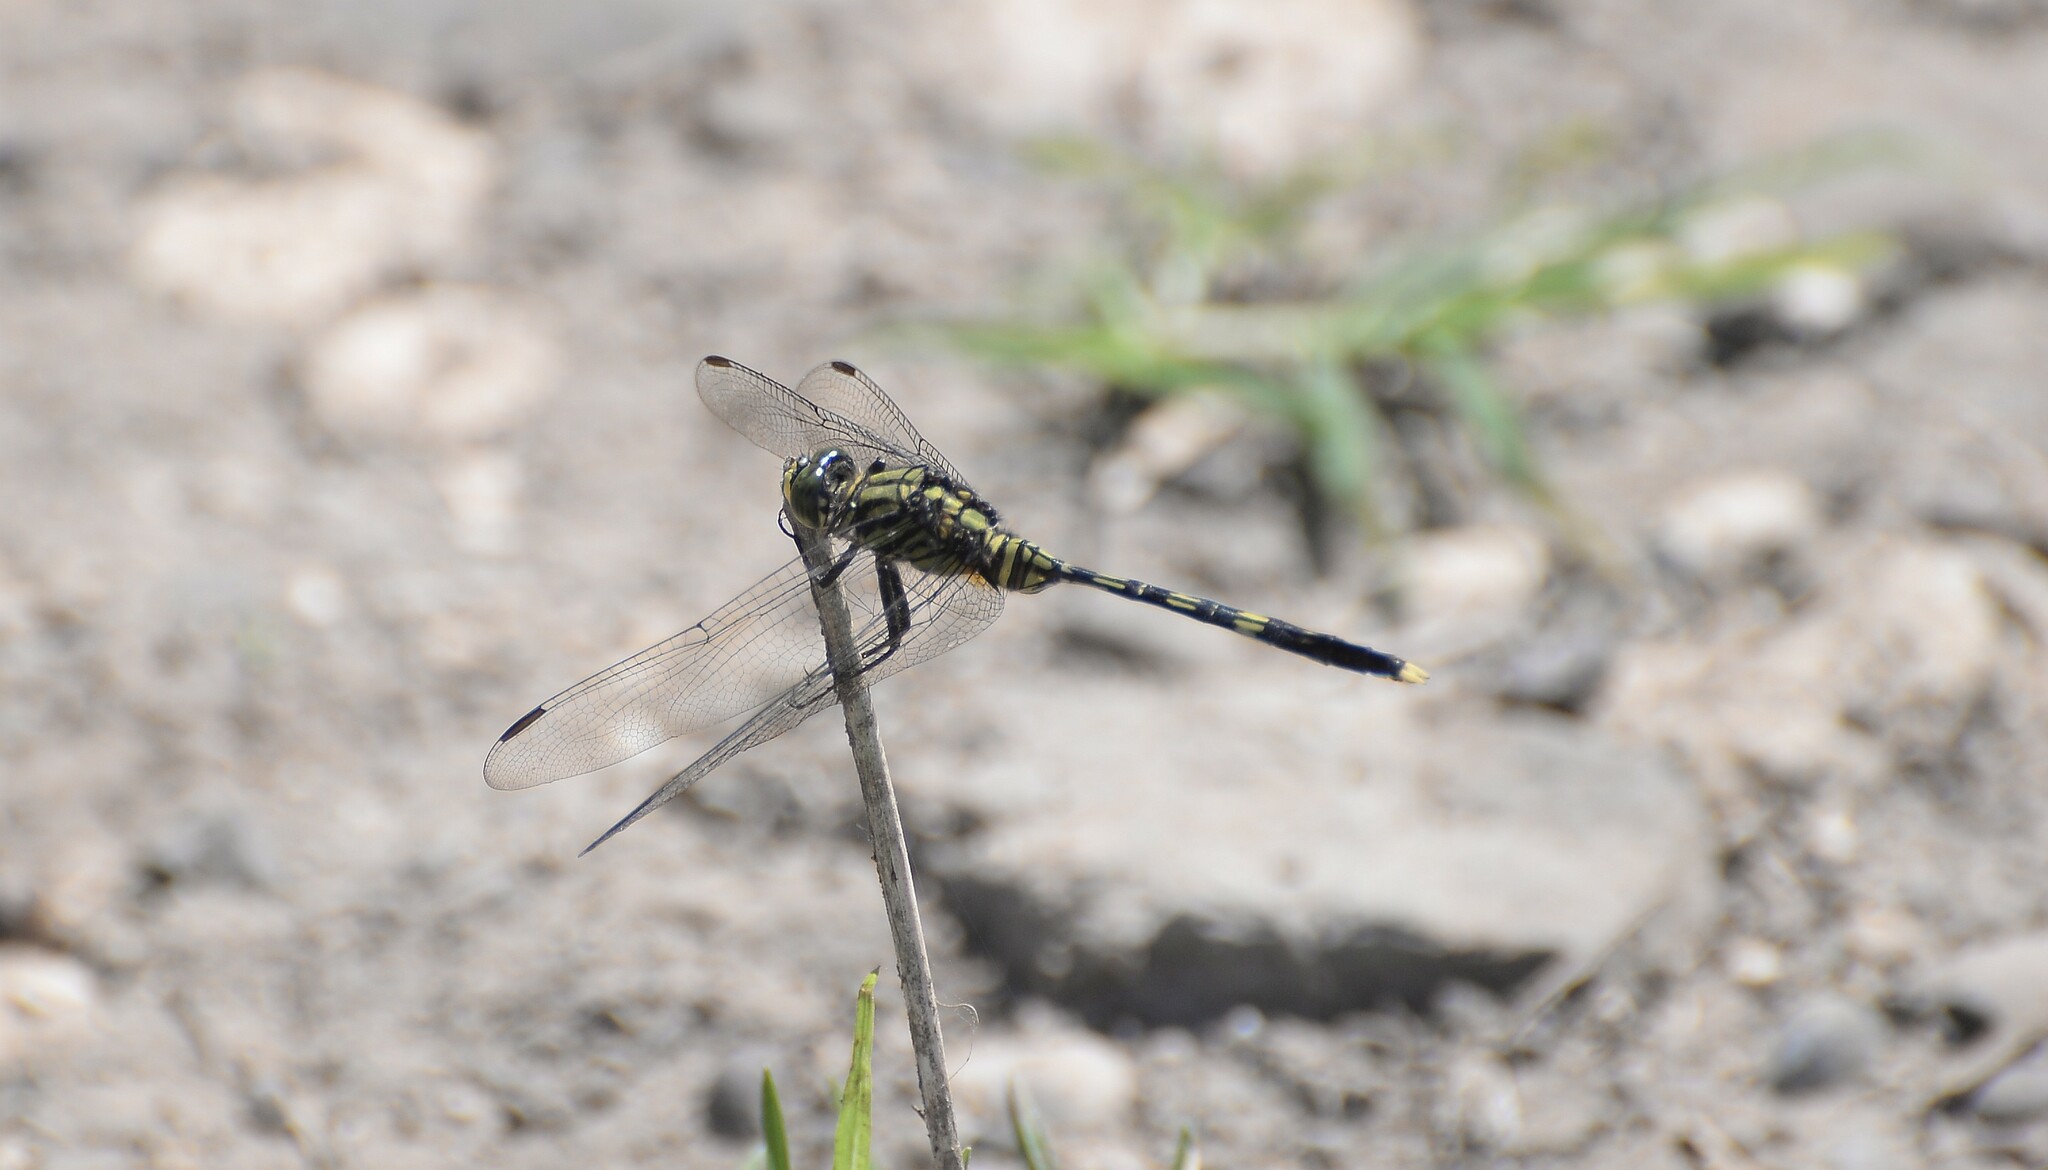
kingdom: Animalia
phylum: Arthropoda
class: Insecta
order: Odonata
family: Libellulidae
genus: Orthetrum
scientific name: Orthetrum serapia
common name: Green skimmer
